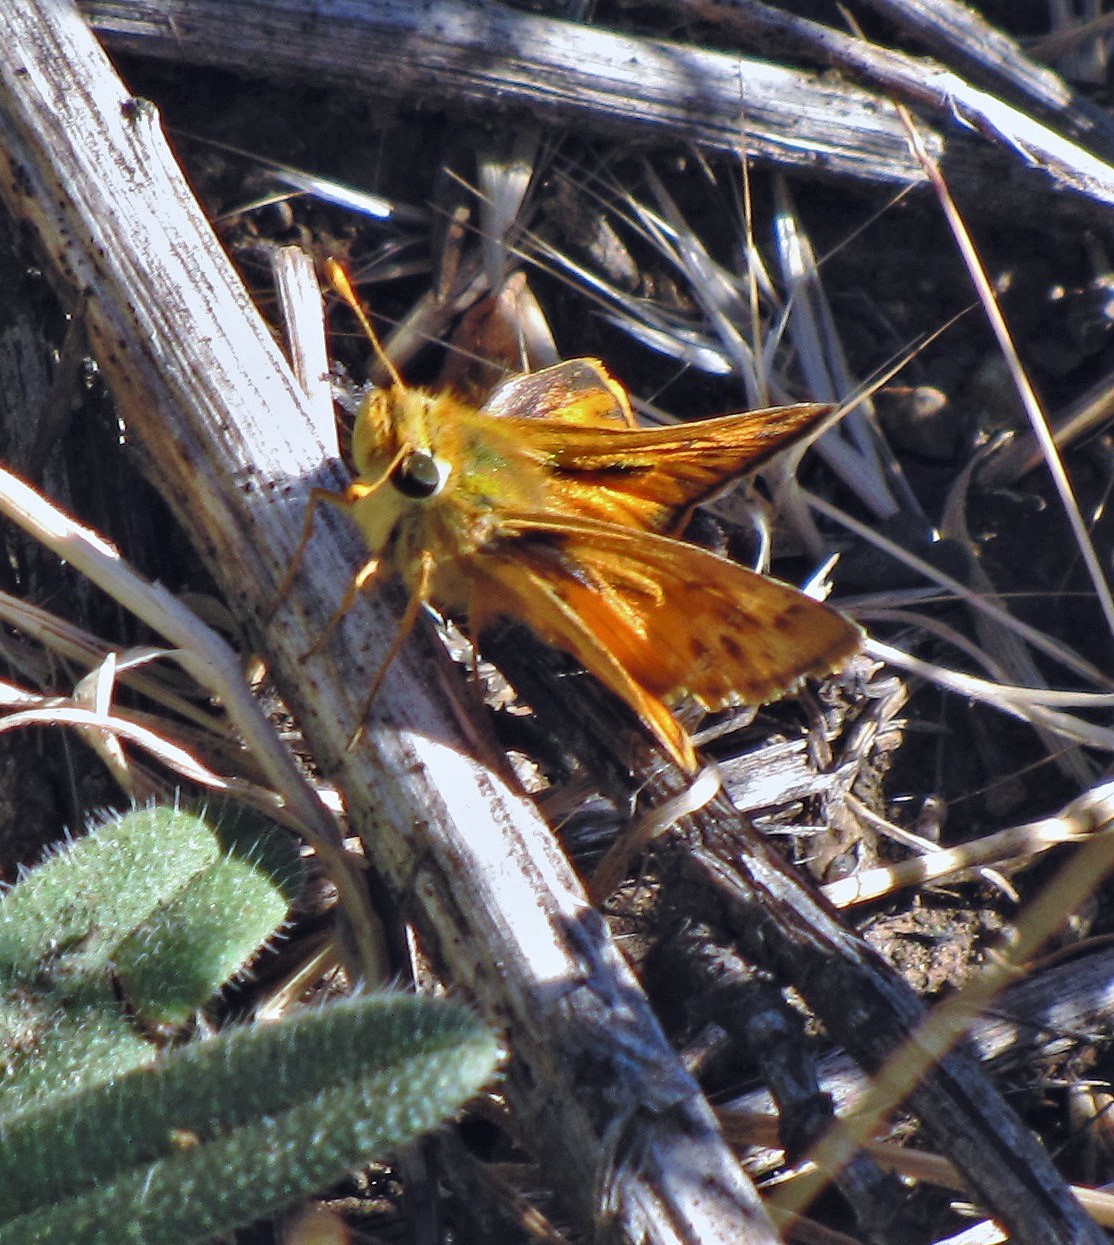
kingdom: Animalia
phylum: Arthropoda
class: Insecta
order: Lepidoptera
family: Hesperiidae
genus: Hylephila
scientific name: Hylephila signata
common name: Signata skipper
